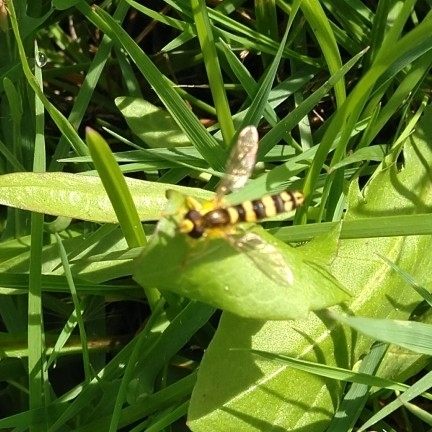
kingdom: Animalia
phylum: Arthropoda
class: Insecta
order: Diptera
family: Syrphidae
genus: Sphaerophoria
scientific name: Sphaerophoria
